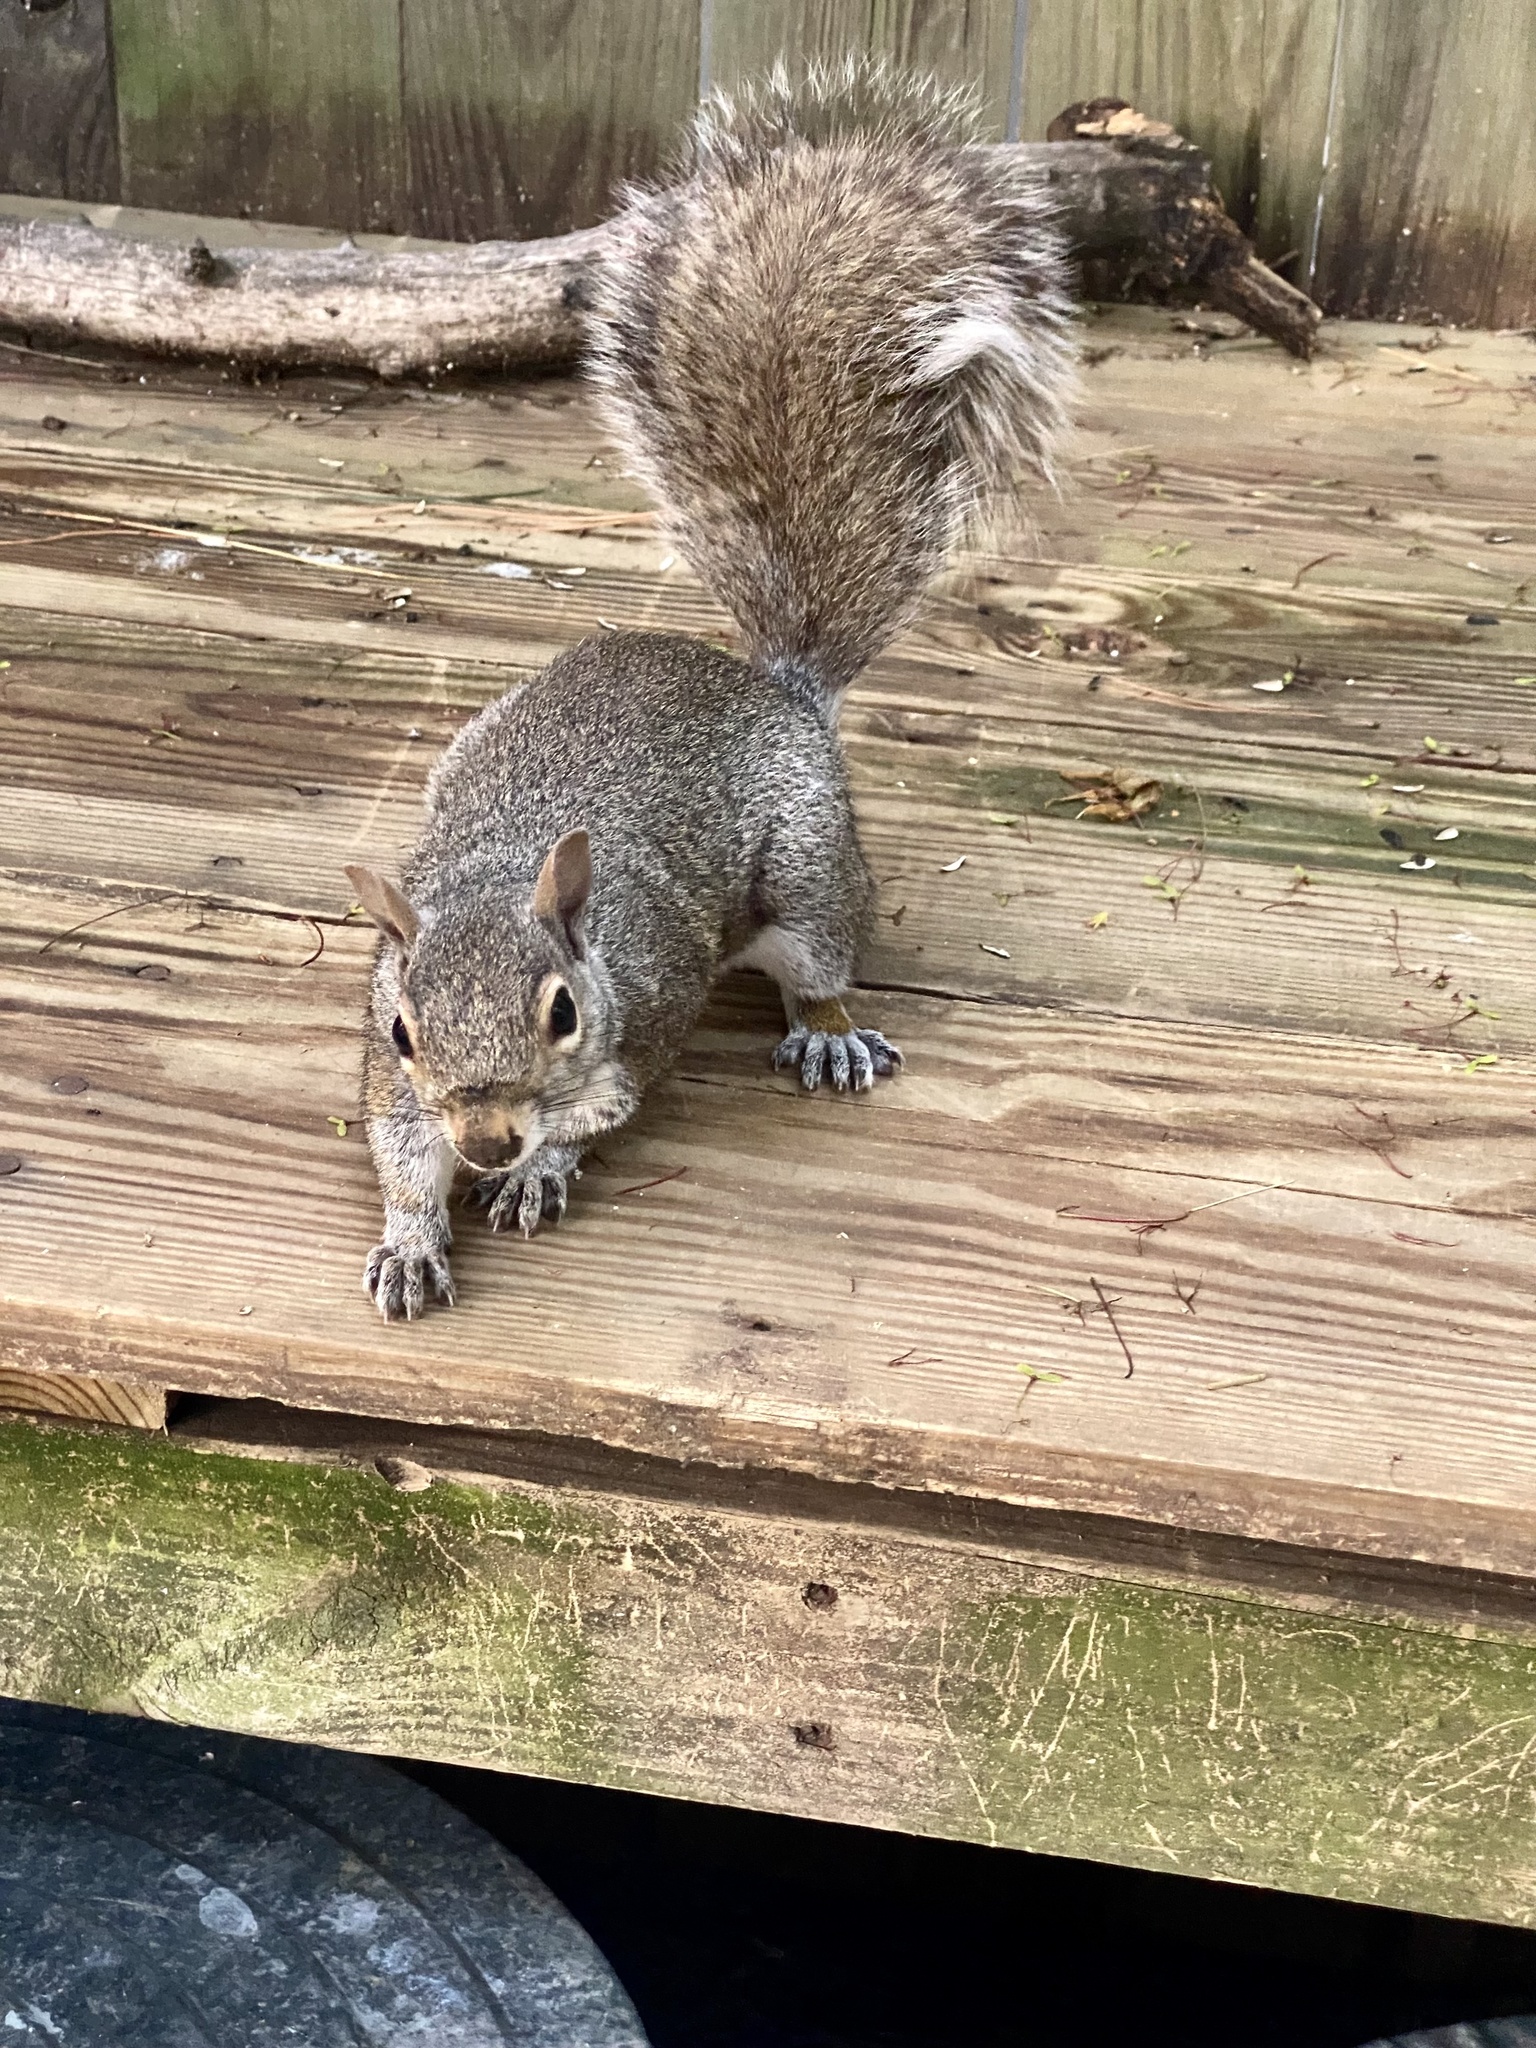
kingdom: Animalia
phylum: Chordata
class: Mammalia
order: Rodentia
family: Sciuridae
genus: Sciurus
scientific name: Sciurus carolinensis
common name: Eastern gray squirrel
